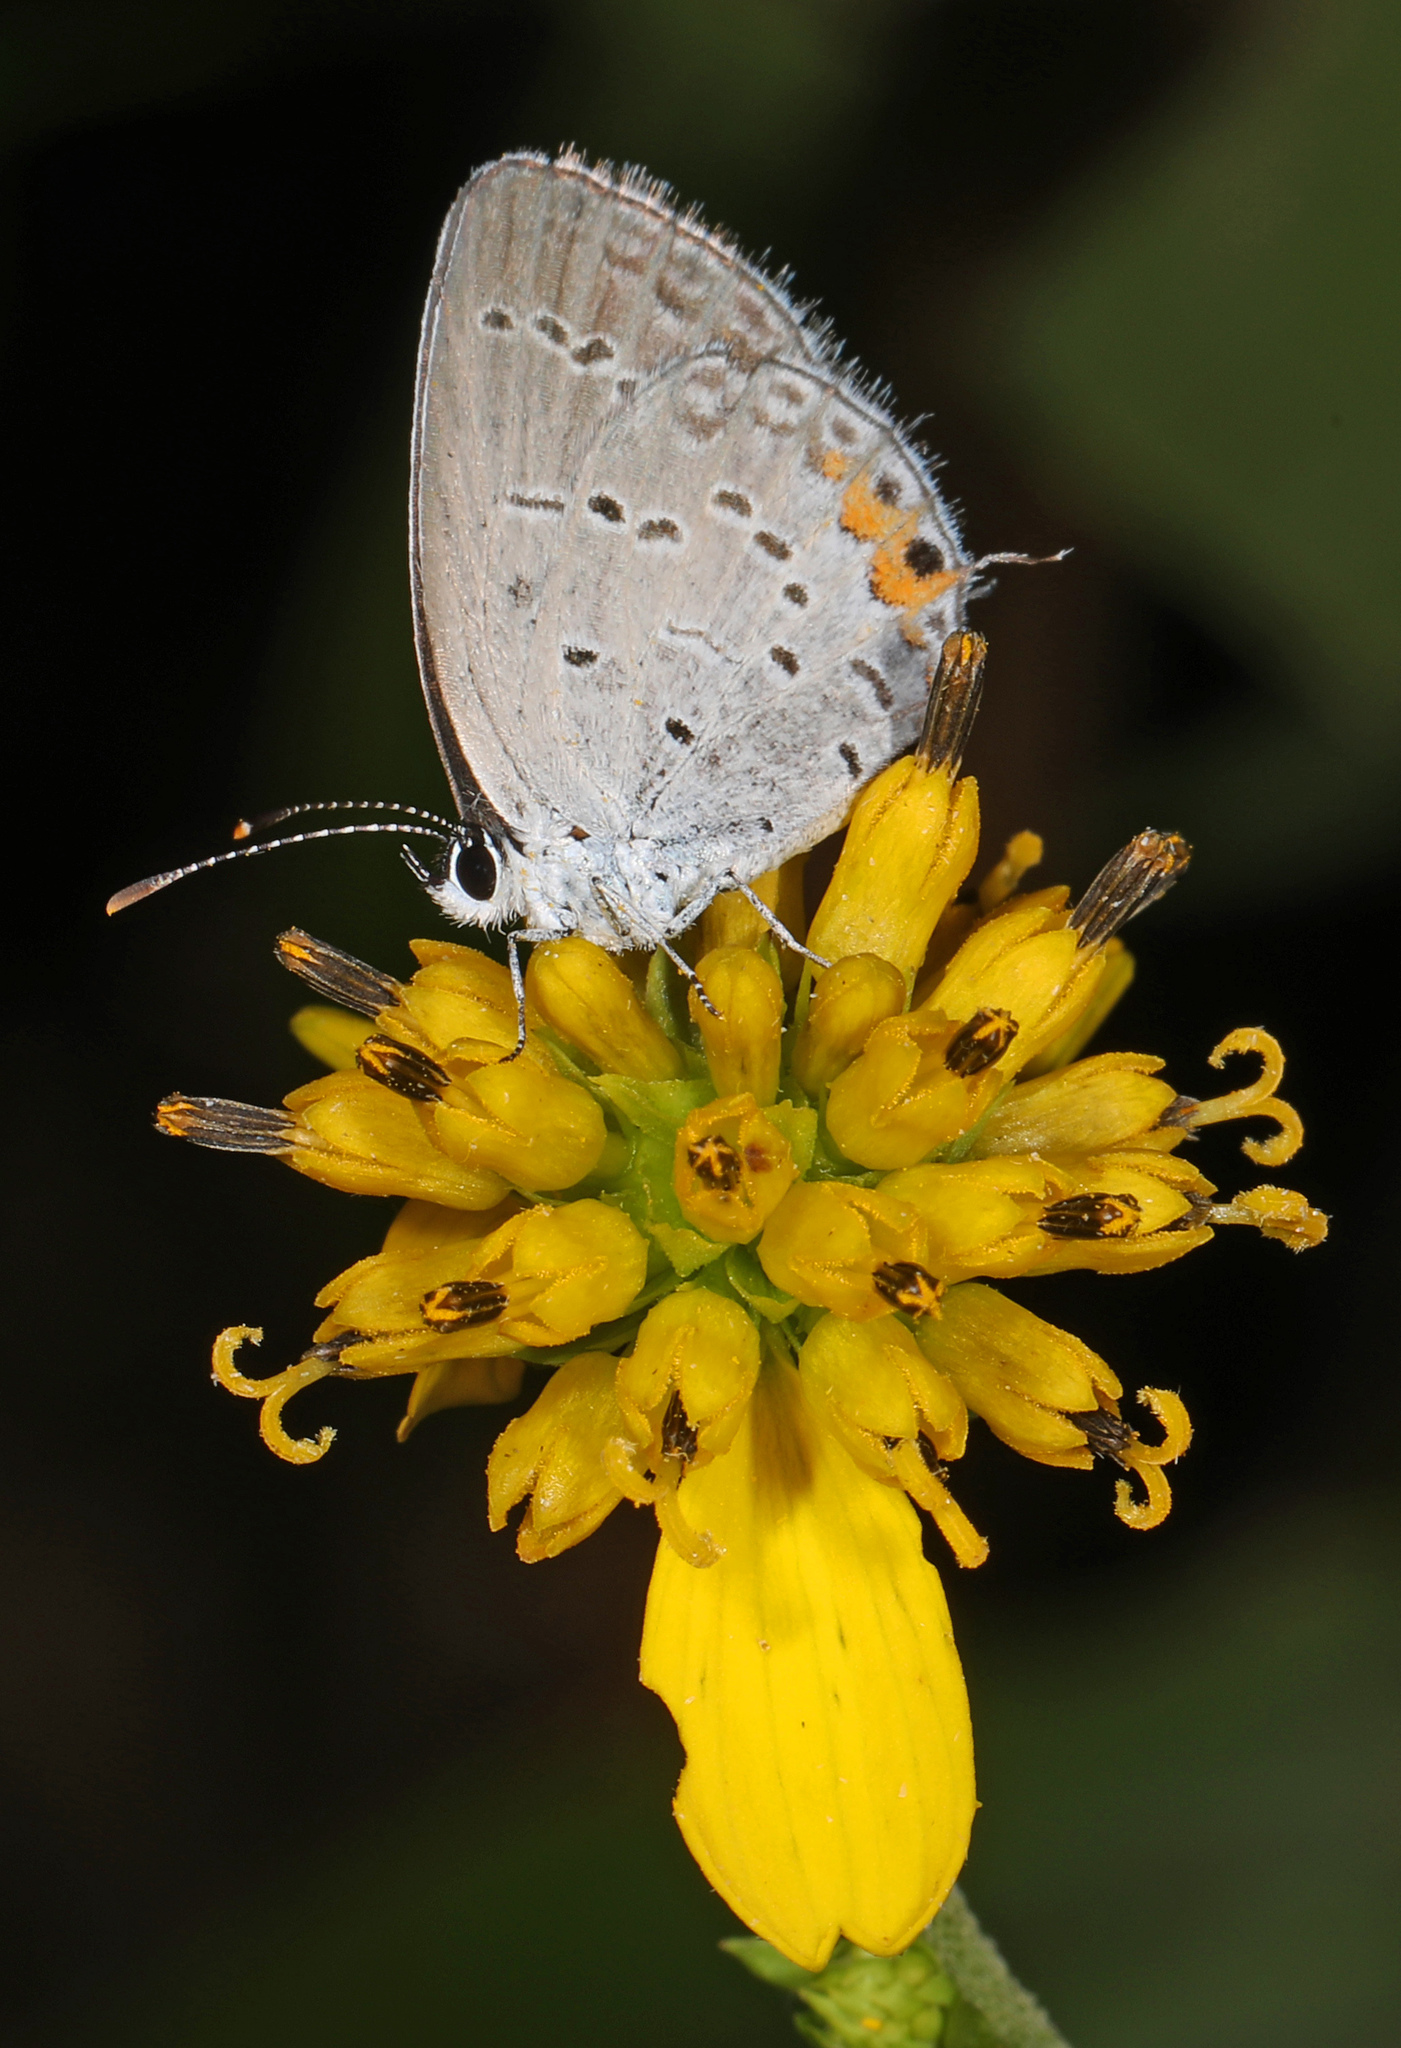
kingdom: Animalia
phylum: Arthropoda
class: Insecta
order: Lepidoptera
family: Lycaenidae
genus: Elkalyce
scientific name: Elkalyce comyntas
